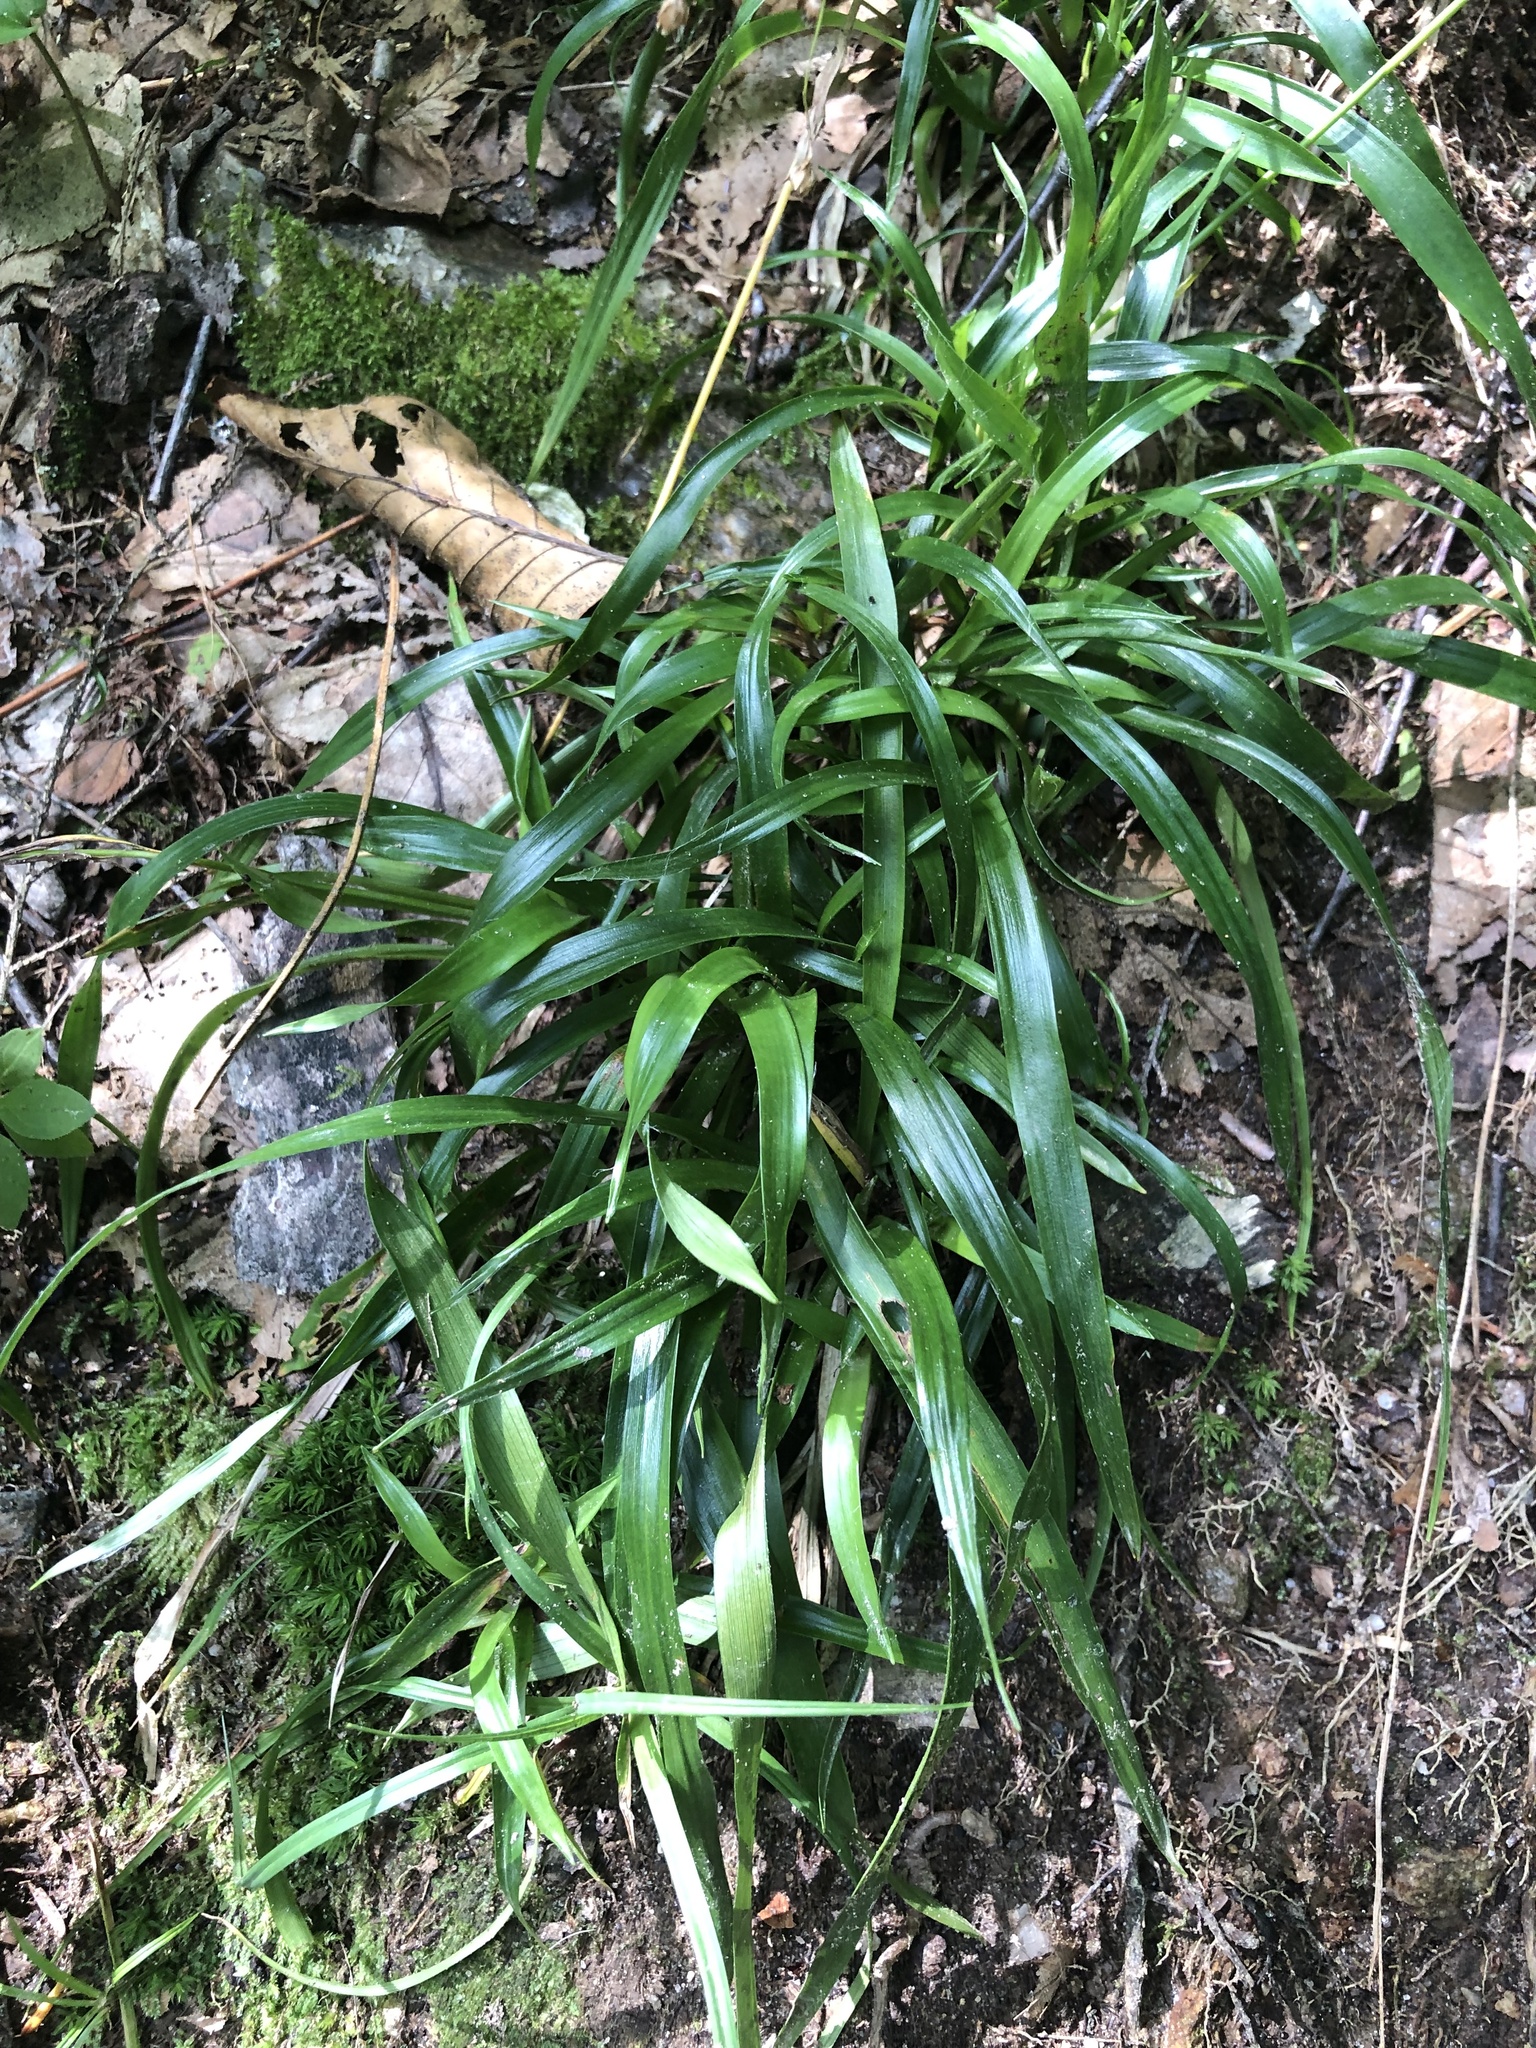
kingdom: Plantae
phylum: Tracheophyta
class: Liliopsida
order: Poales
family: Juncaceae
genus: Luzula
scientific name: Luzula acuminata
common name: Hairy woodrush
